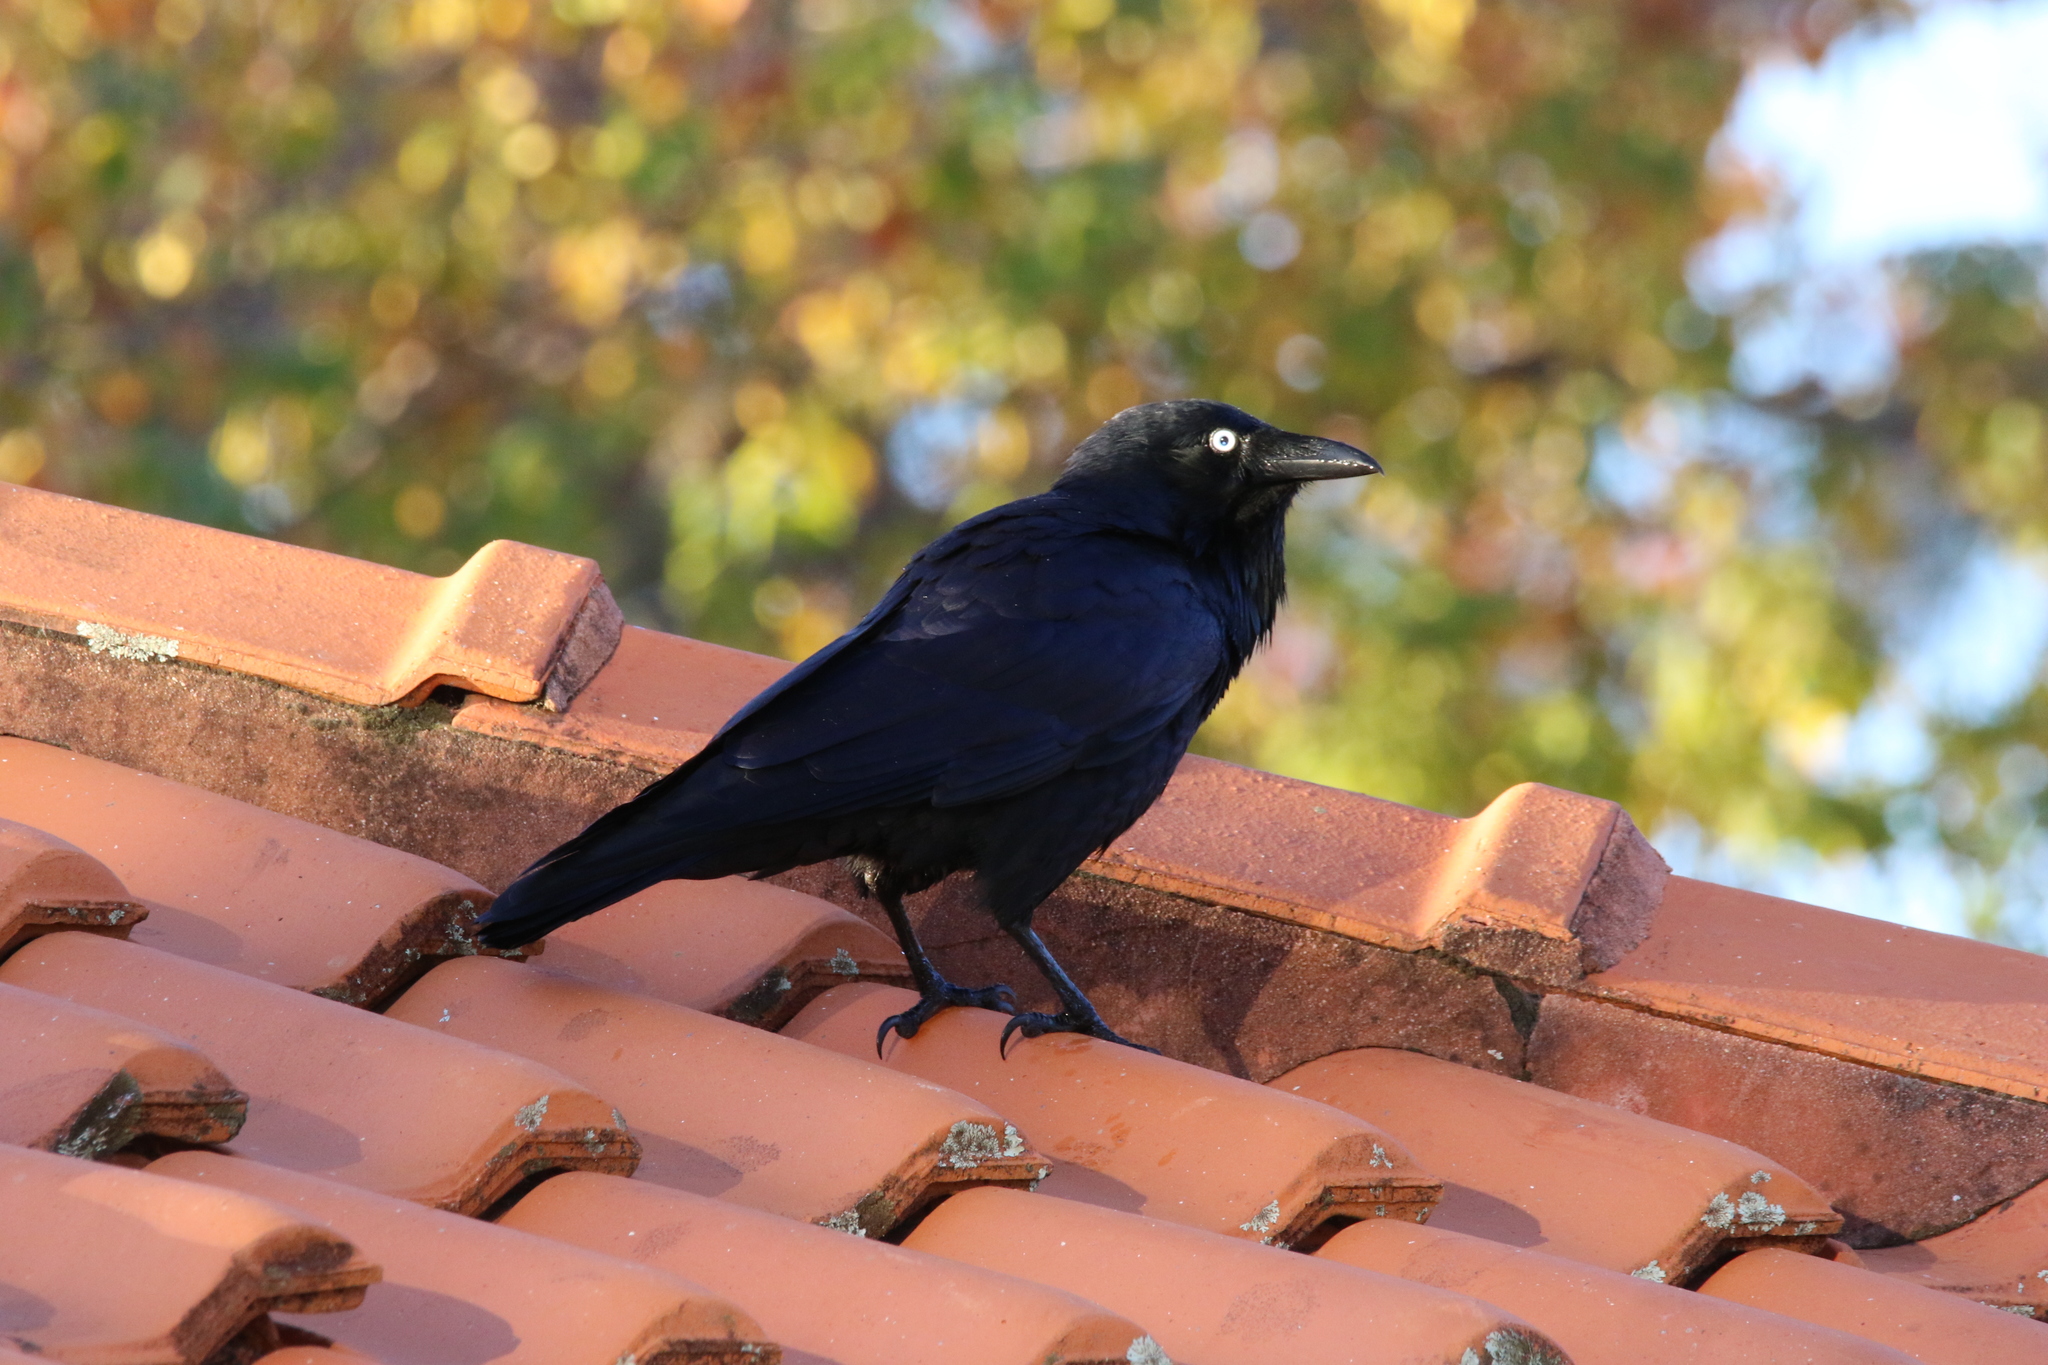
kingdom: Animalia
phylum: Chordata
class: Aves
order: Passeriformes
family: Corvidae
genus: Corvus
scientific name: Corvus coronoides
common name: Australian raven
